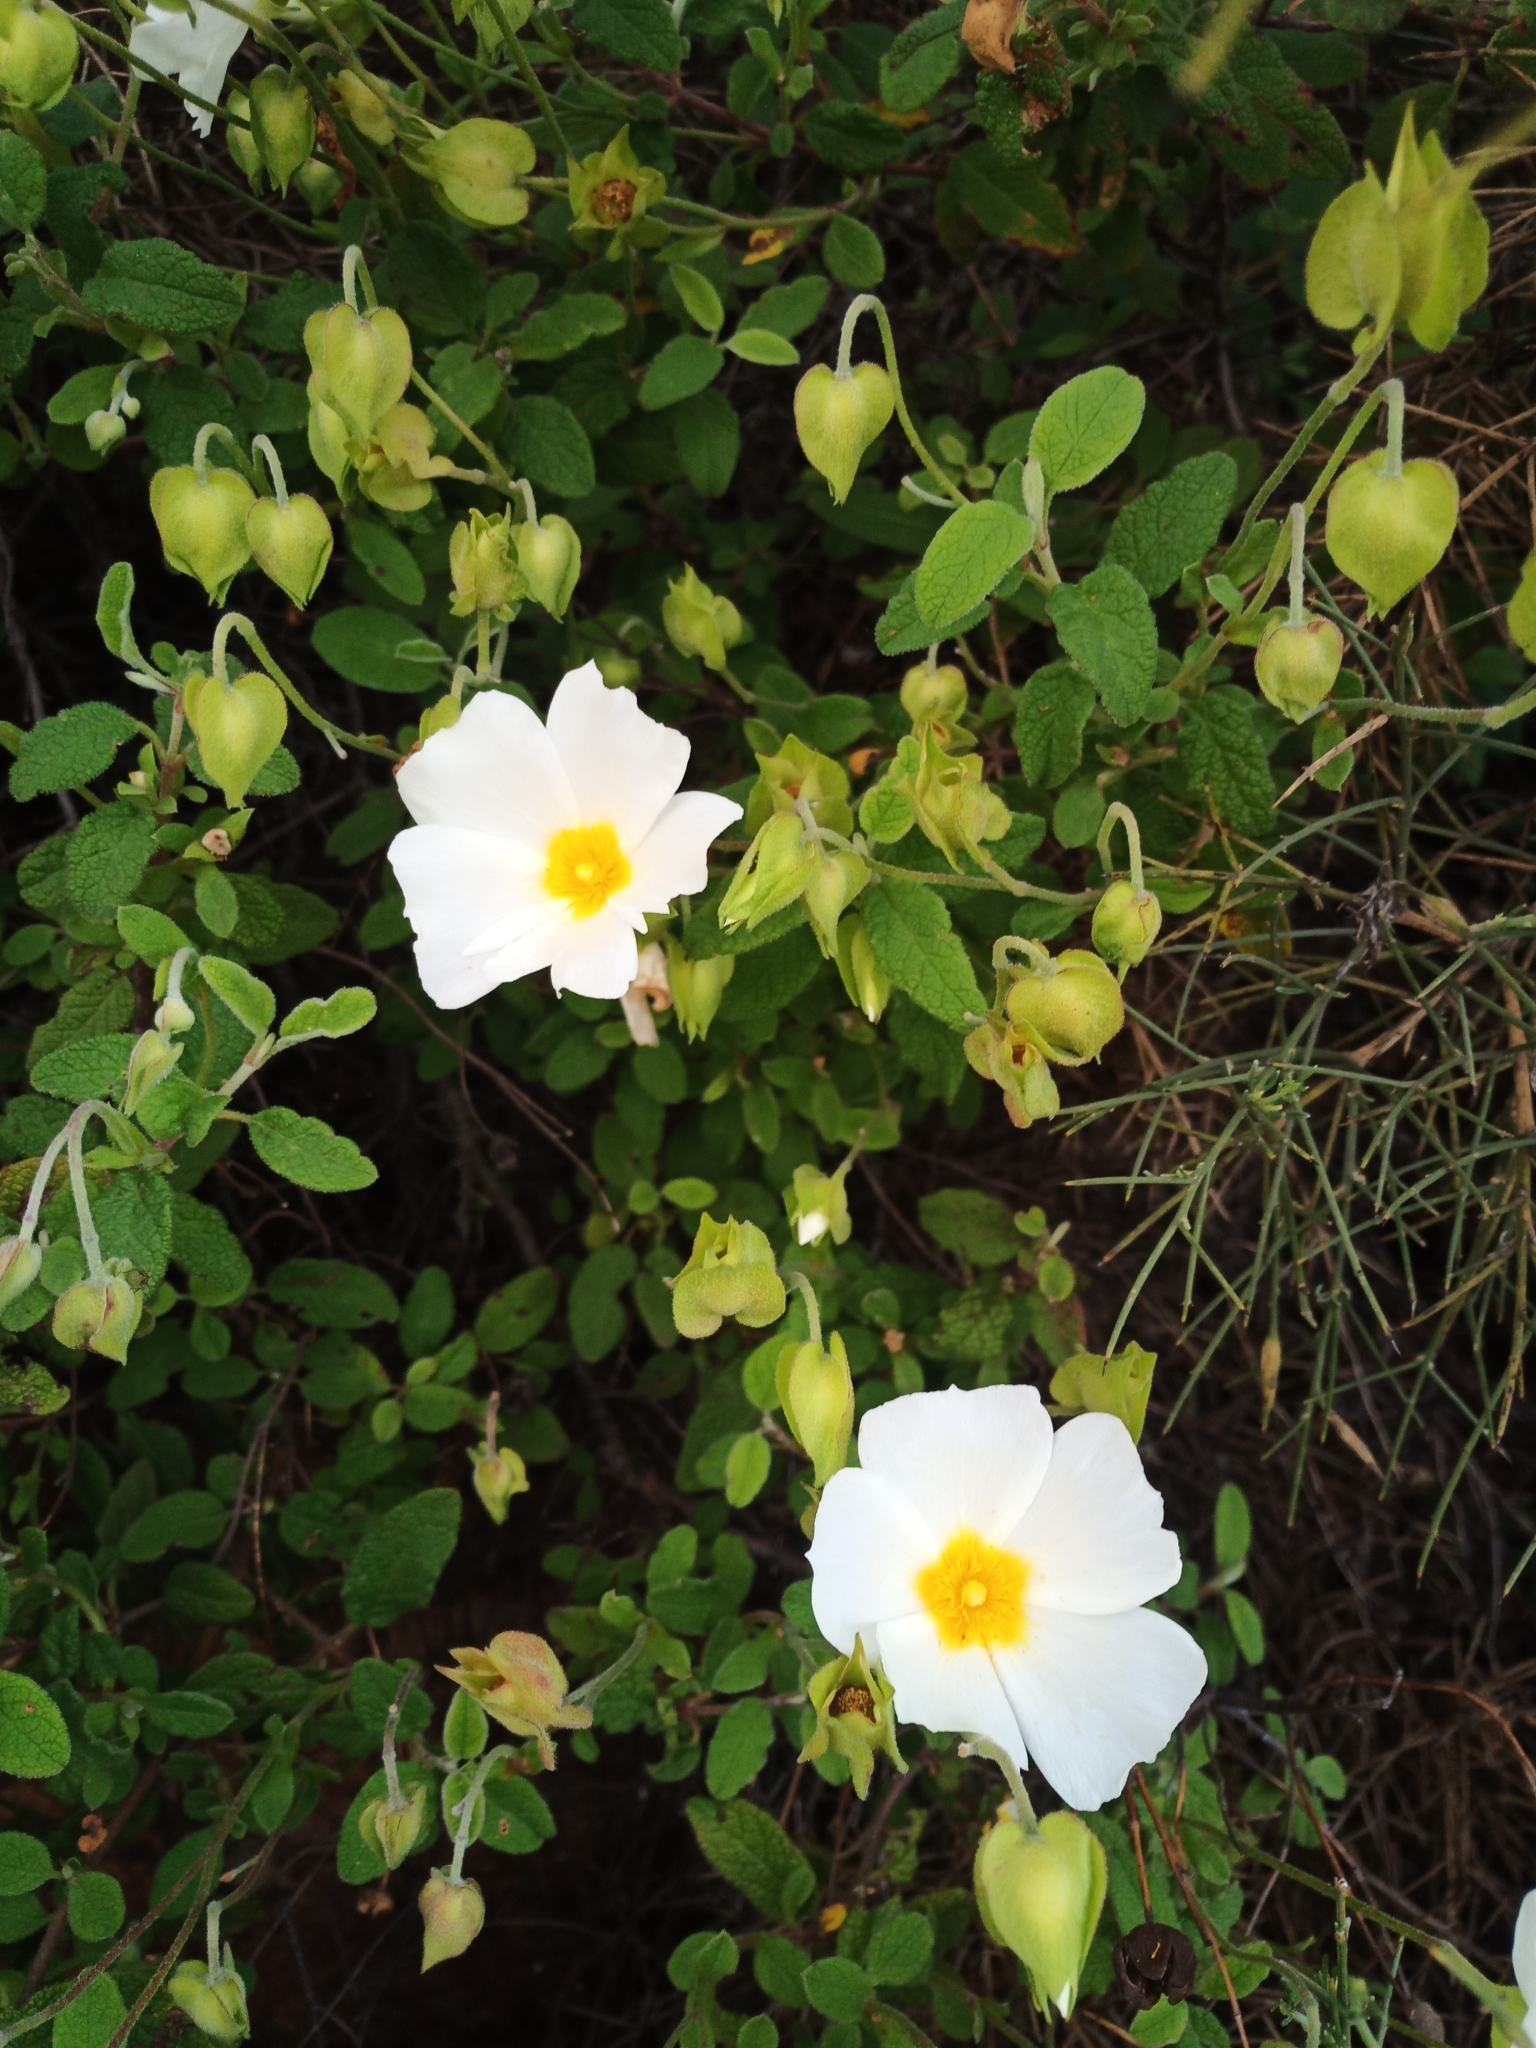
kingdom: Plantae
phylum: Tracheophyta
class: Magnoliopsida
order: Malvales
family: Cistaceae
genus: Cistus
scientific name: Cistus salviifolius
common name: Salvia cistus
